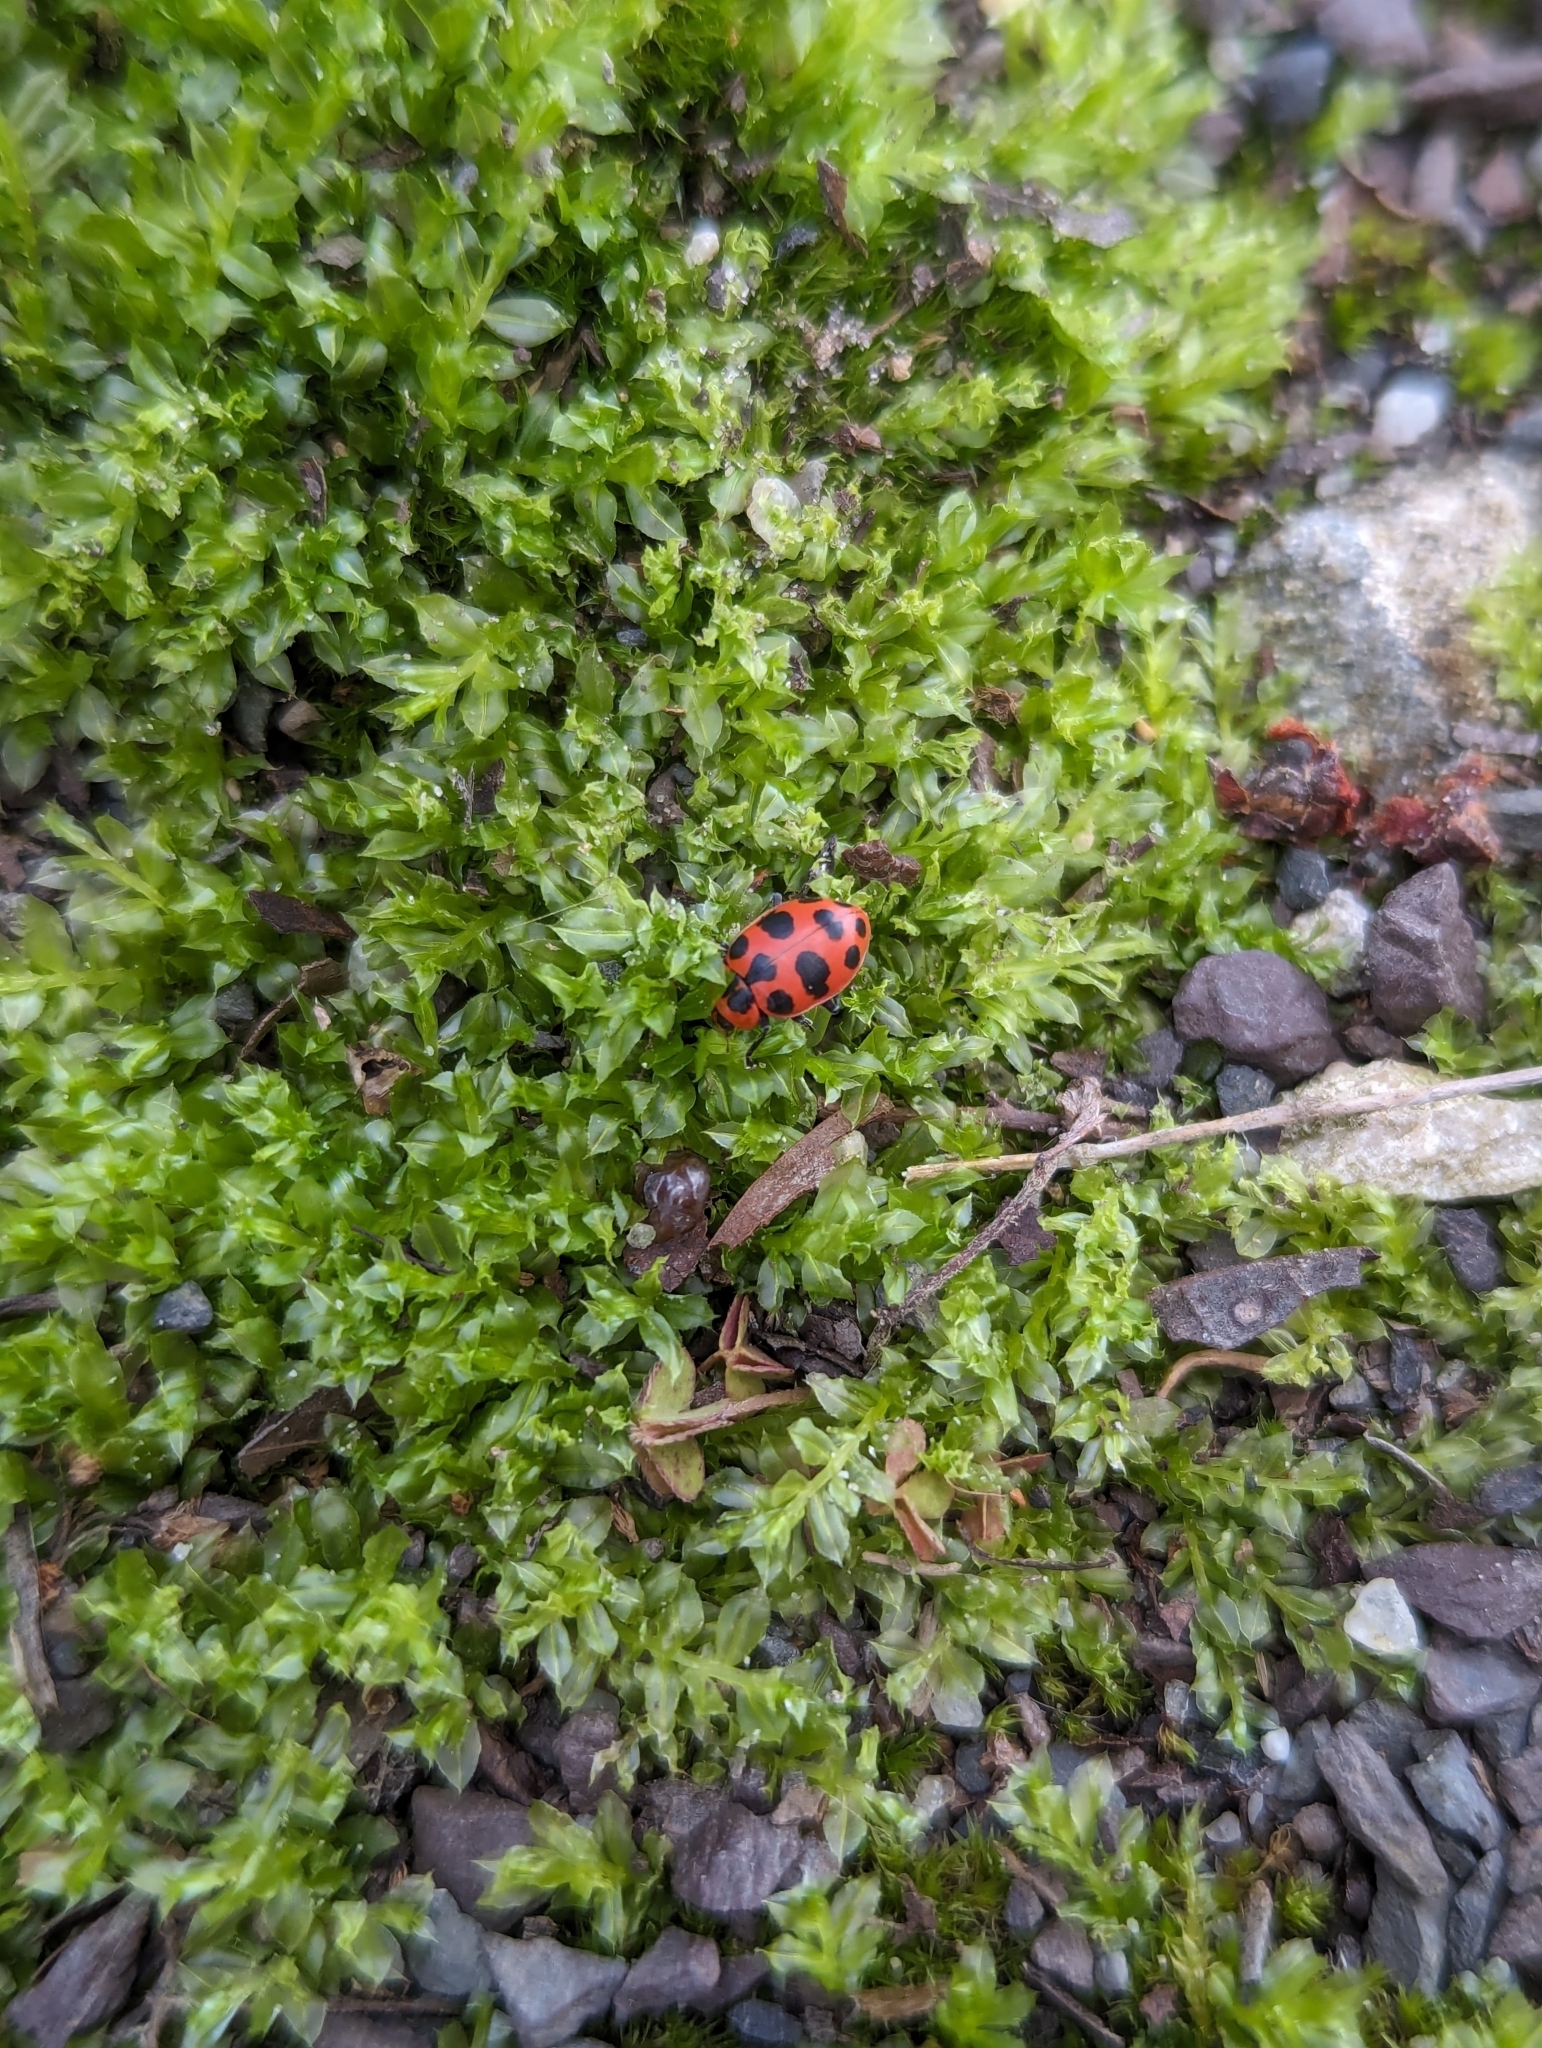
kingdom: Animalia
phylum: Arthropoda
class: Insecta
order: Coleoptera
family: Coccinellidae
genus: Coleomegilla
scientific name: Coleomegilla maculata
